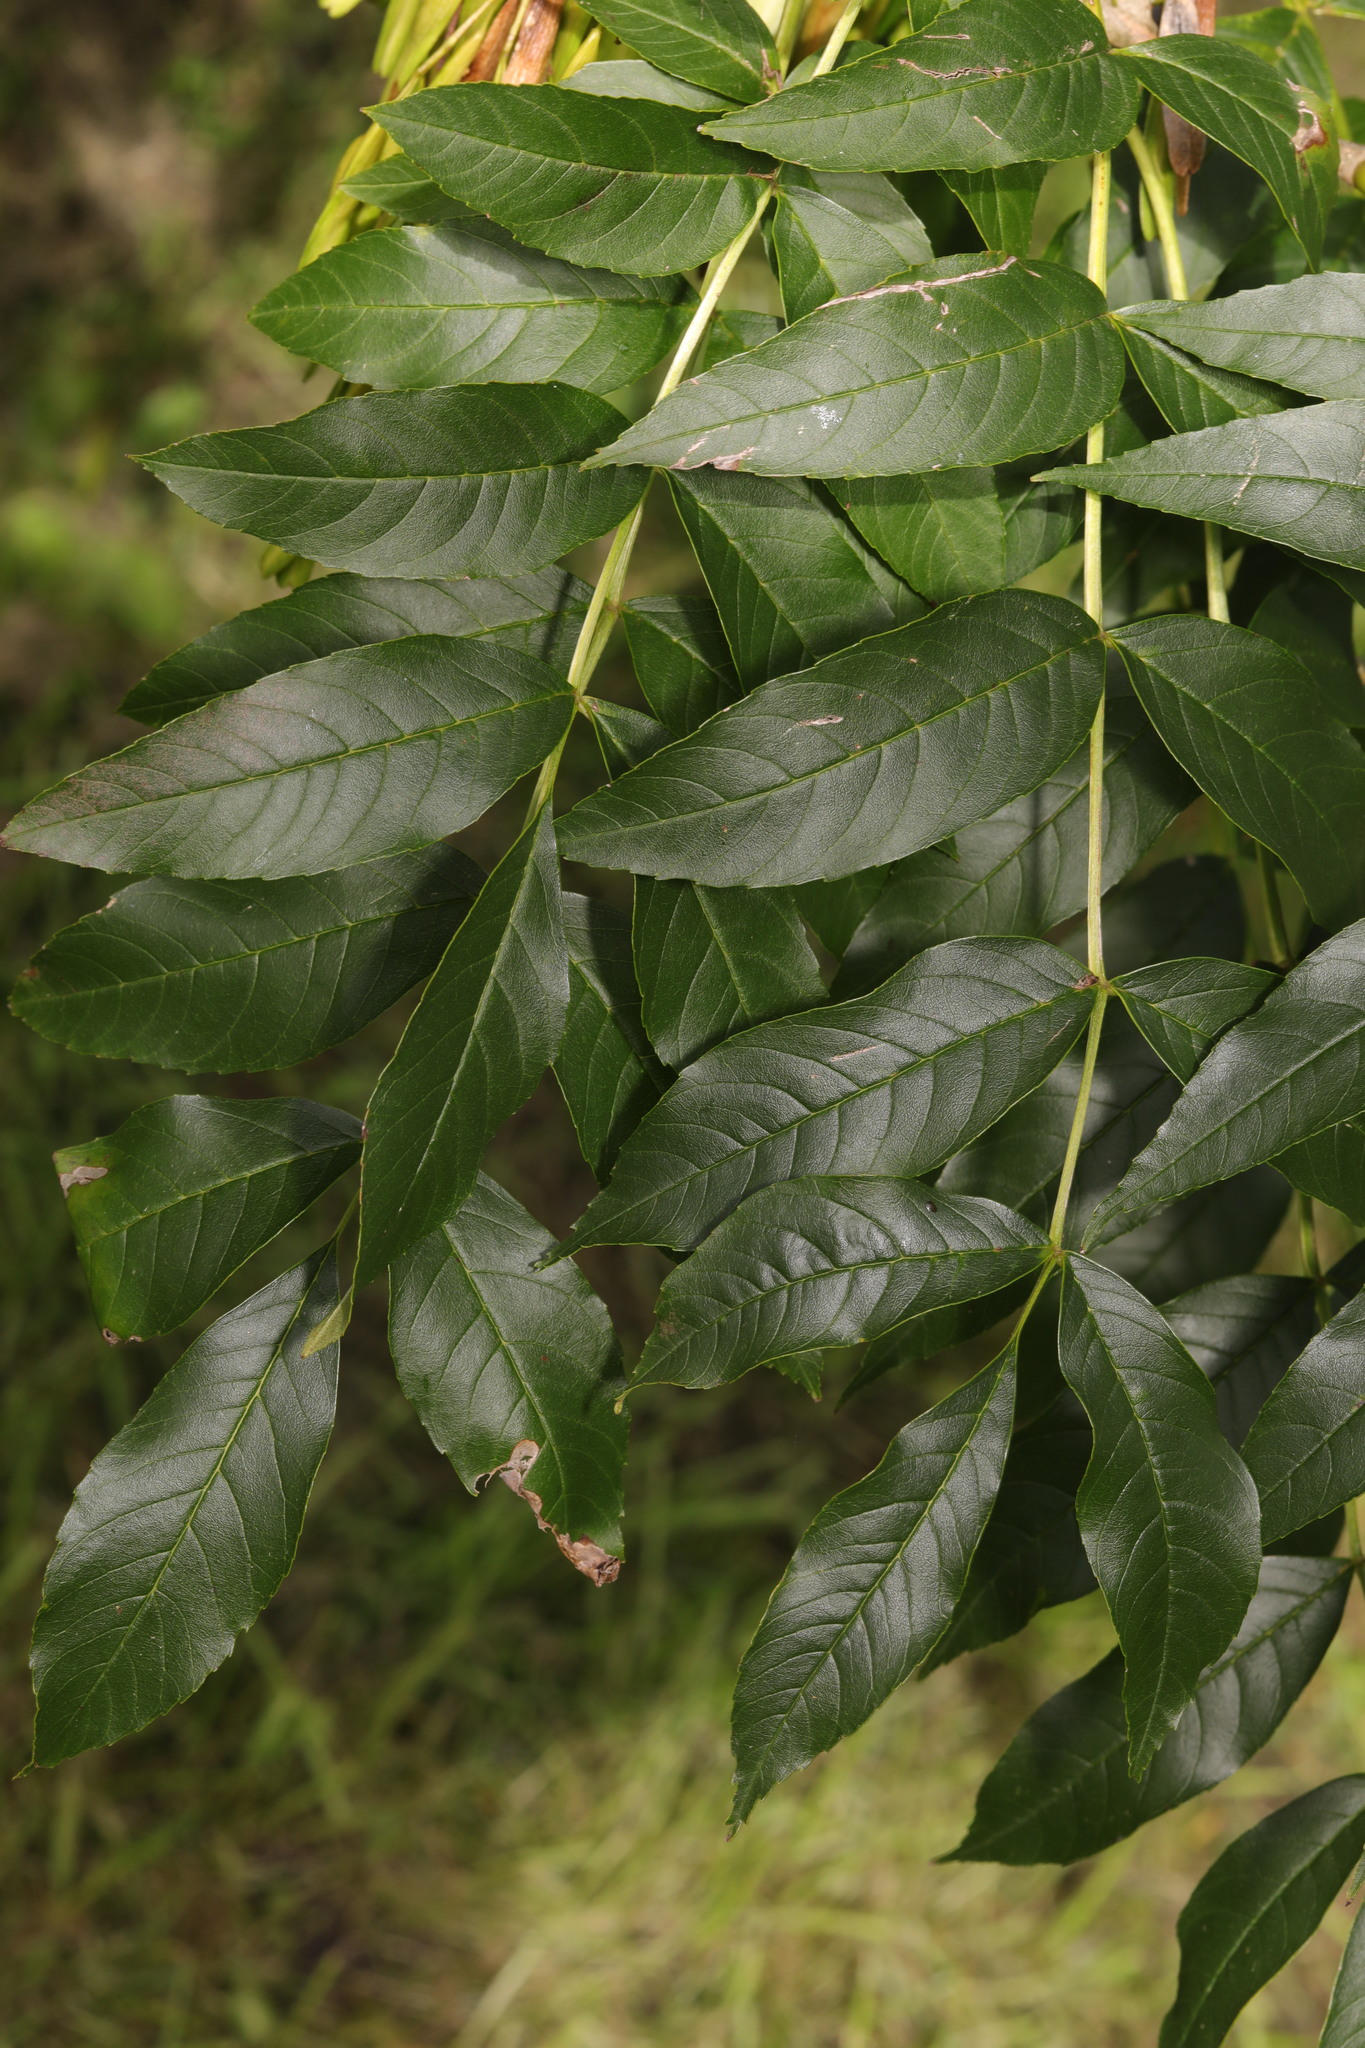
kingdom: Plantae
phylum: Tracheophyta
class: Magnoliopsida
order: Lamiales
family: Oleaceae
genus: Fraxinus
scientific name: Fraxinus excelsior
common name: European ash
